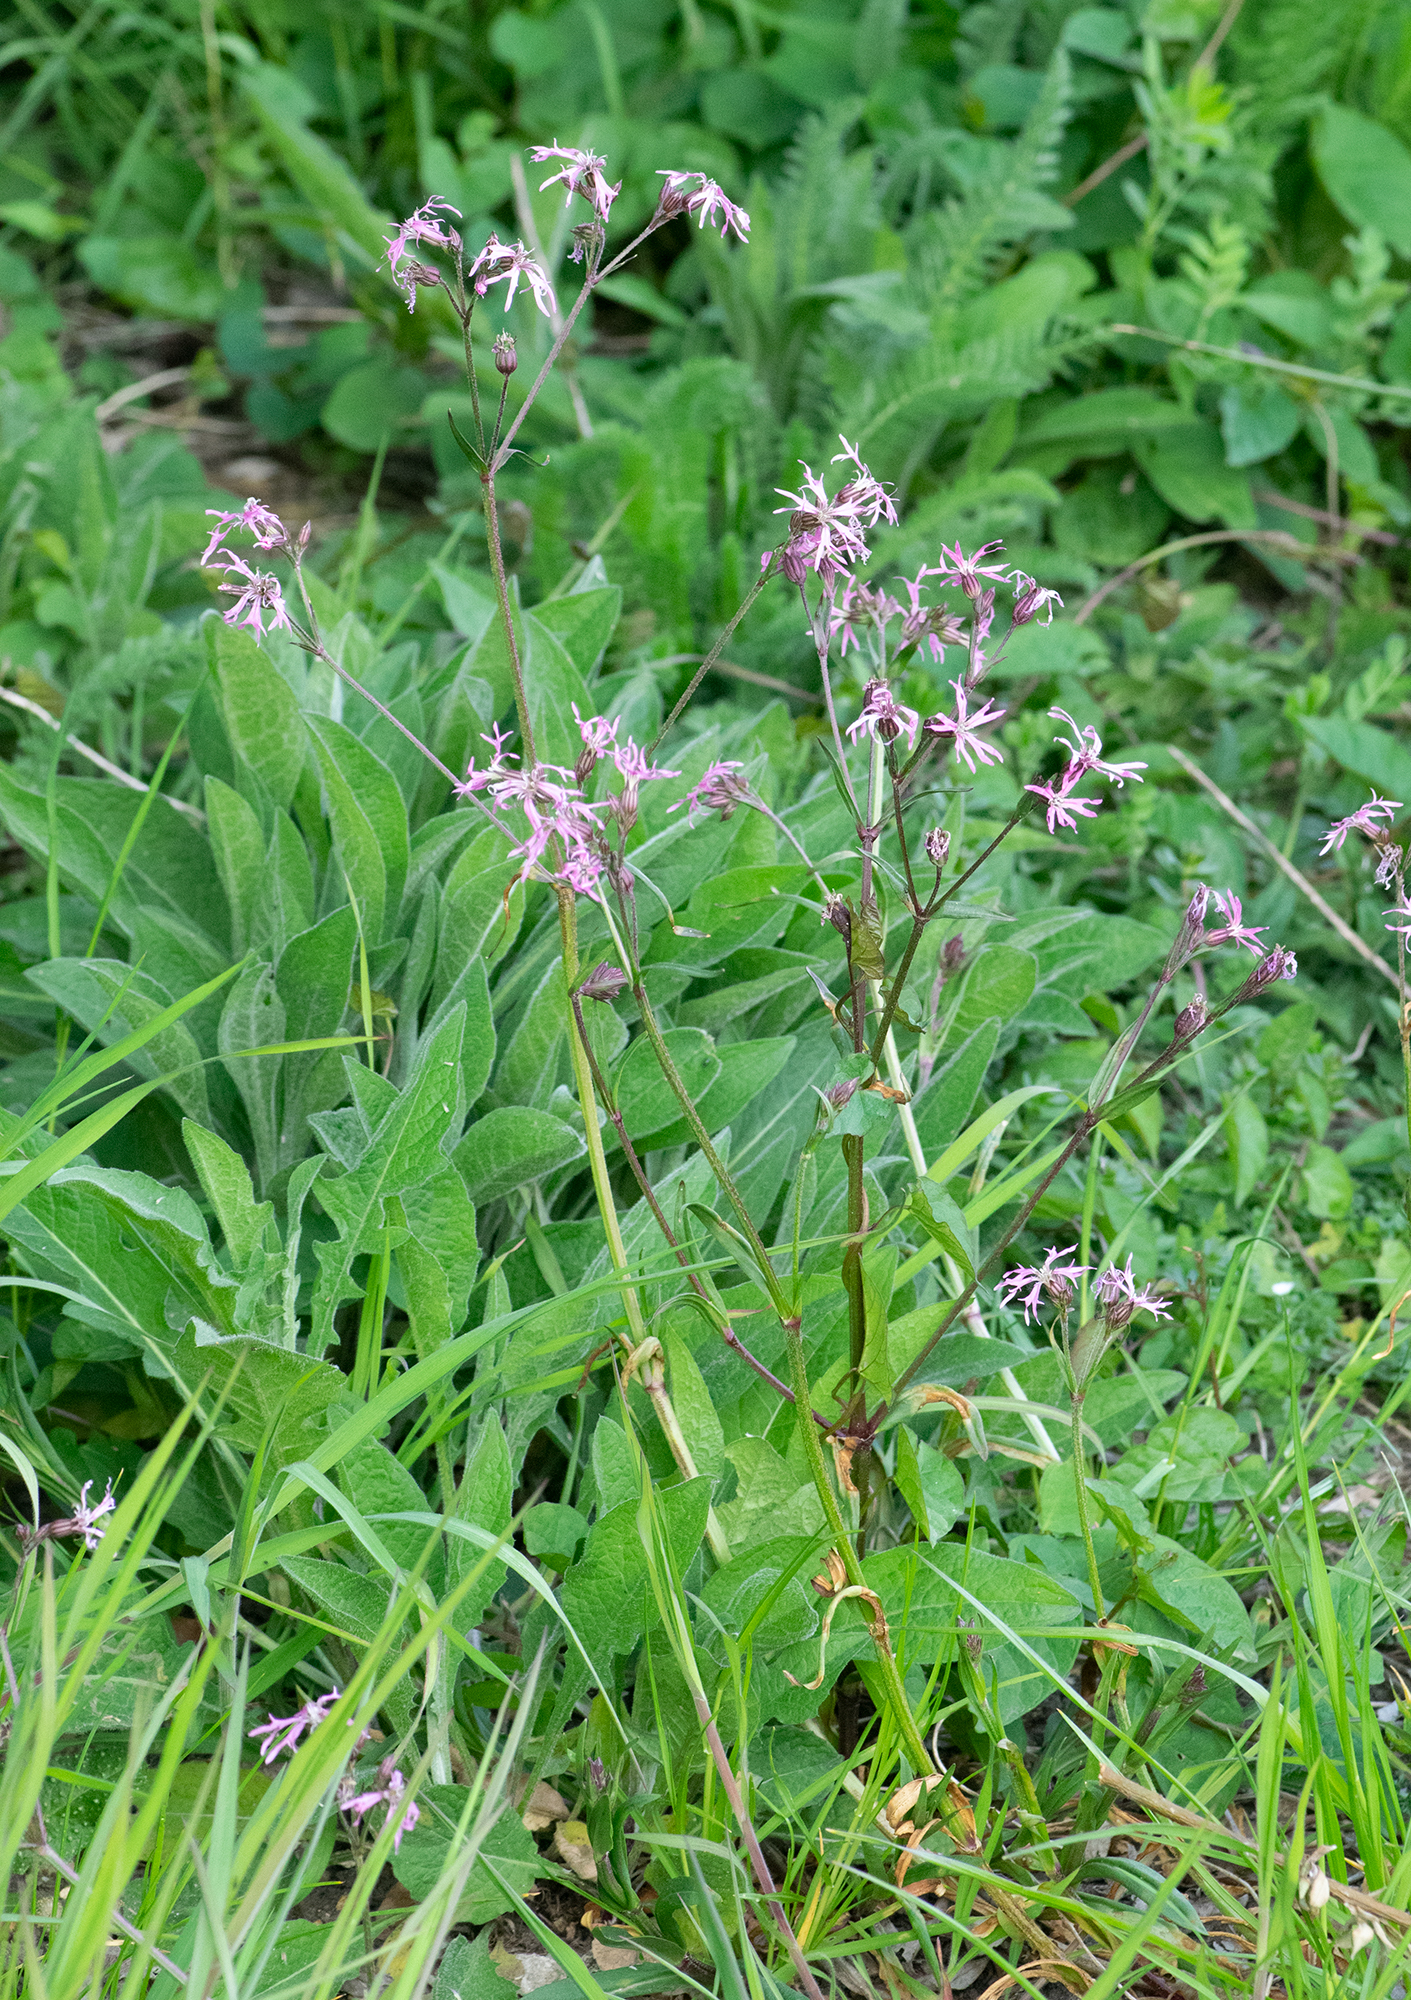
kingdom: Plantae
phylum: Tracheophyta
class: Magnoliopsida
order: Caryophyllales
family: Caryophyllaceae
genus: Silene
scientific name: Silene flos-cuculi
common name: Ragged-robin
